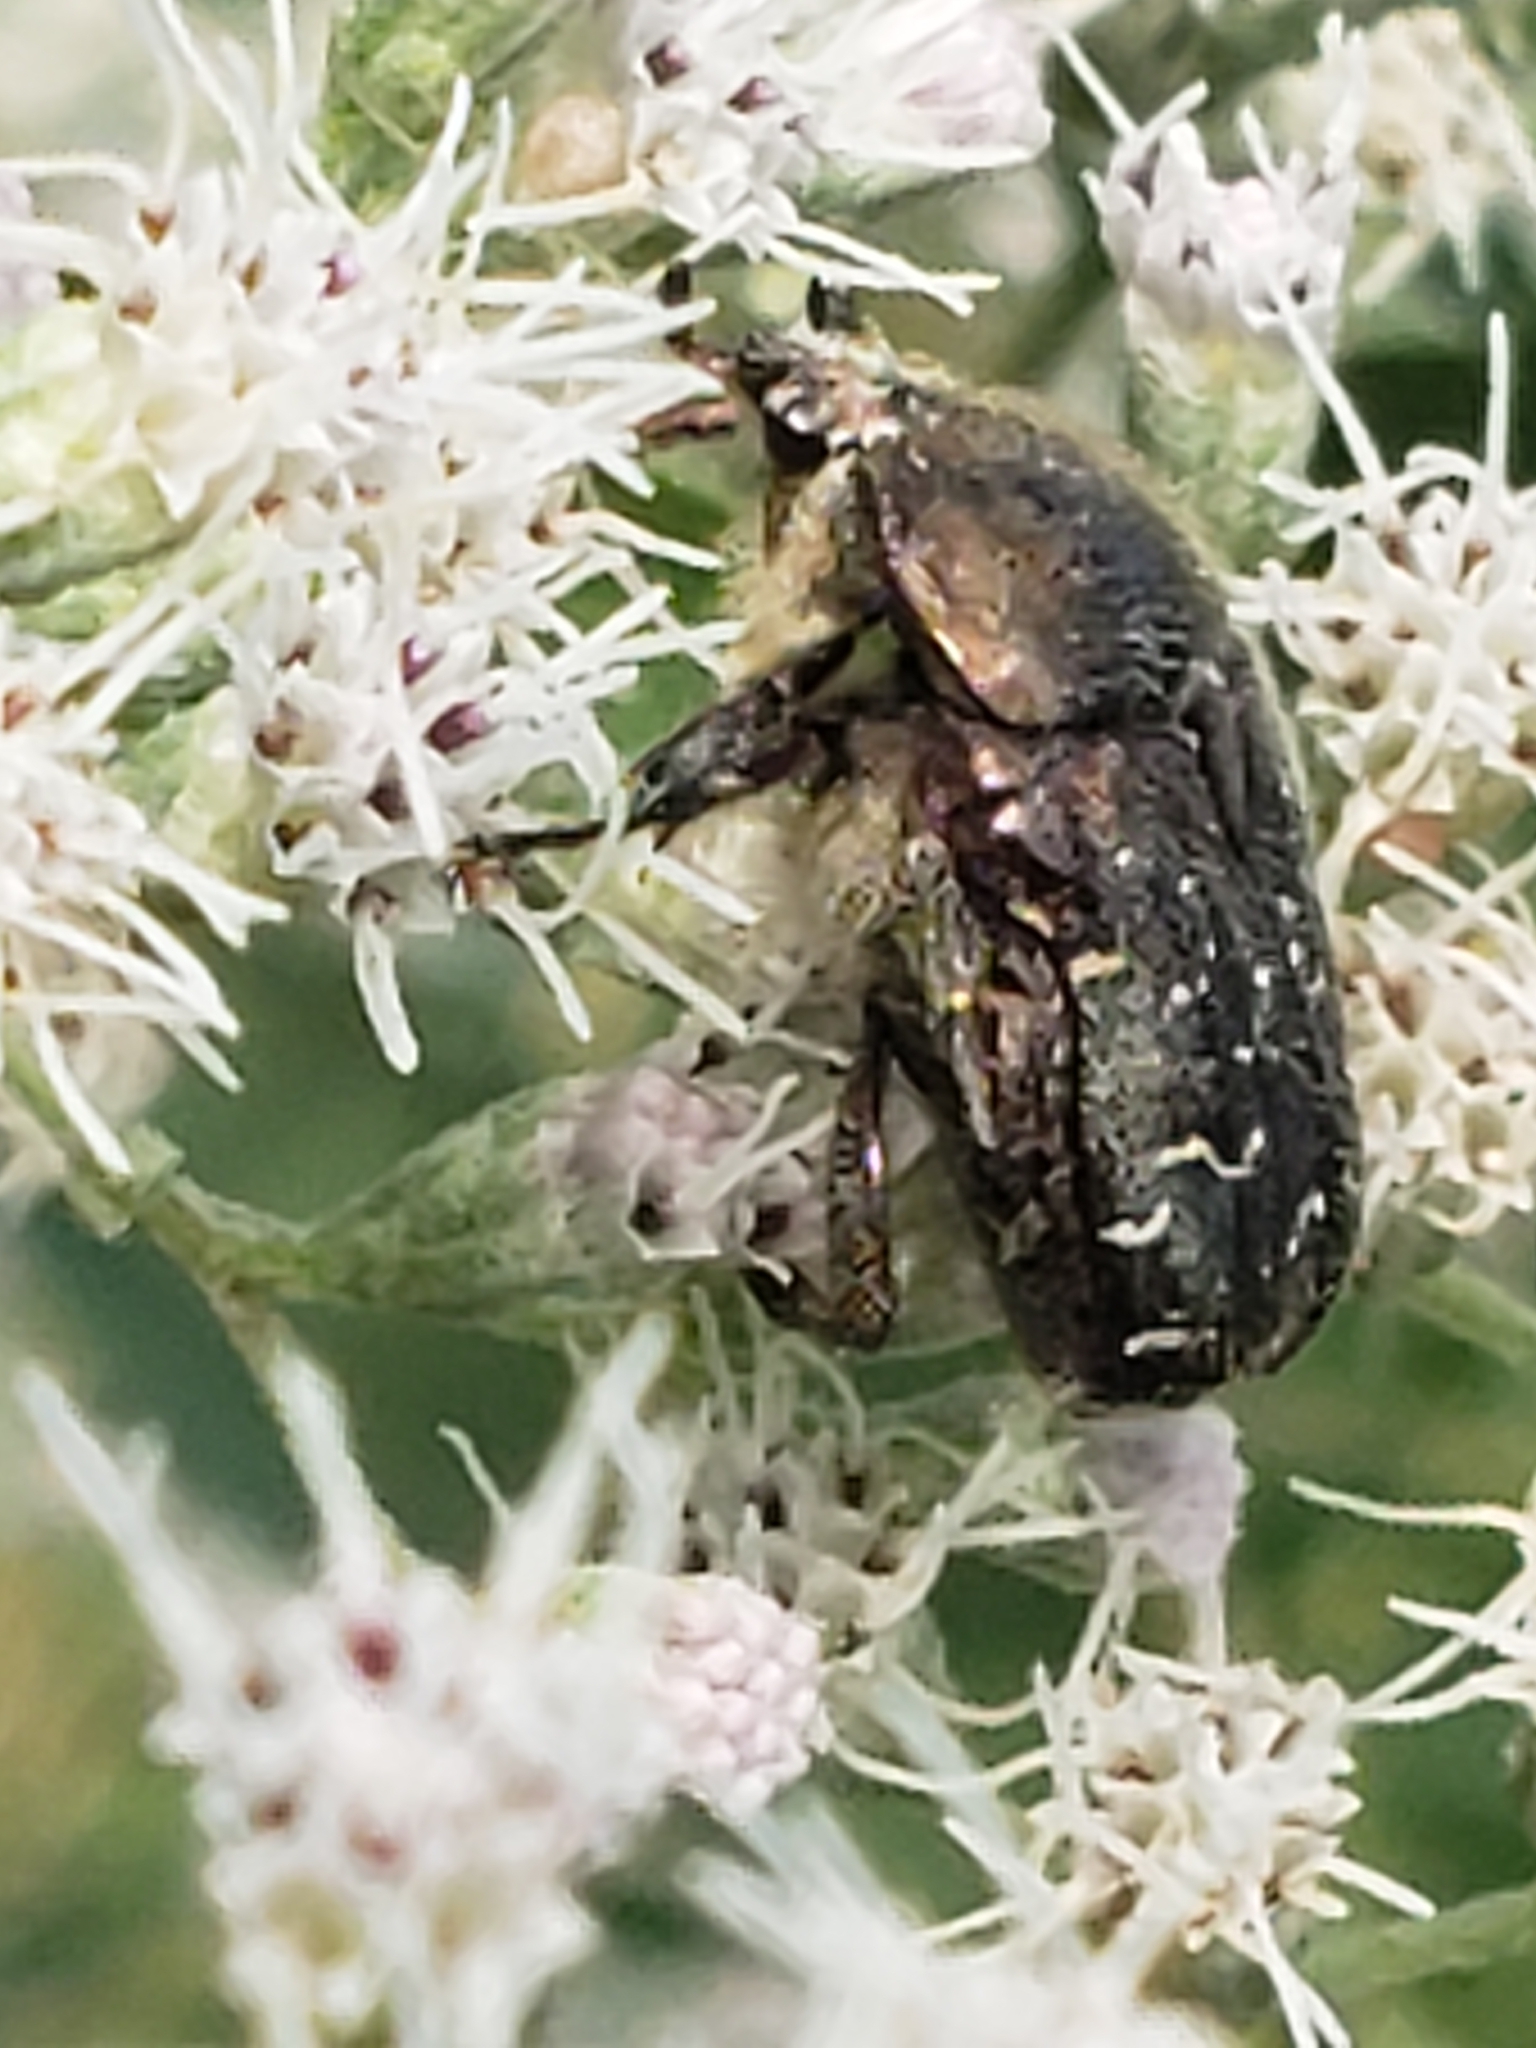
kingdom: Animalia
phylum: Arthropoda
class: Insecta
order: Coleoptera
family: Scarabaeidae
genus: Euphoria
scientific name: Euphoria sepulcralis
